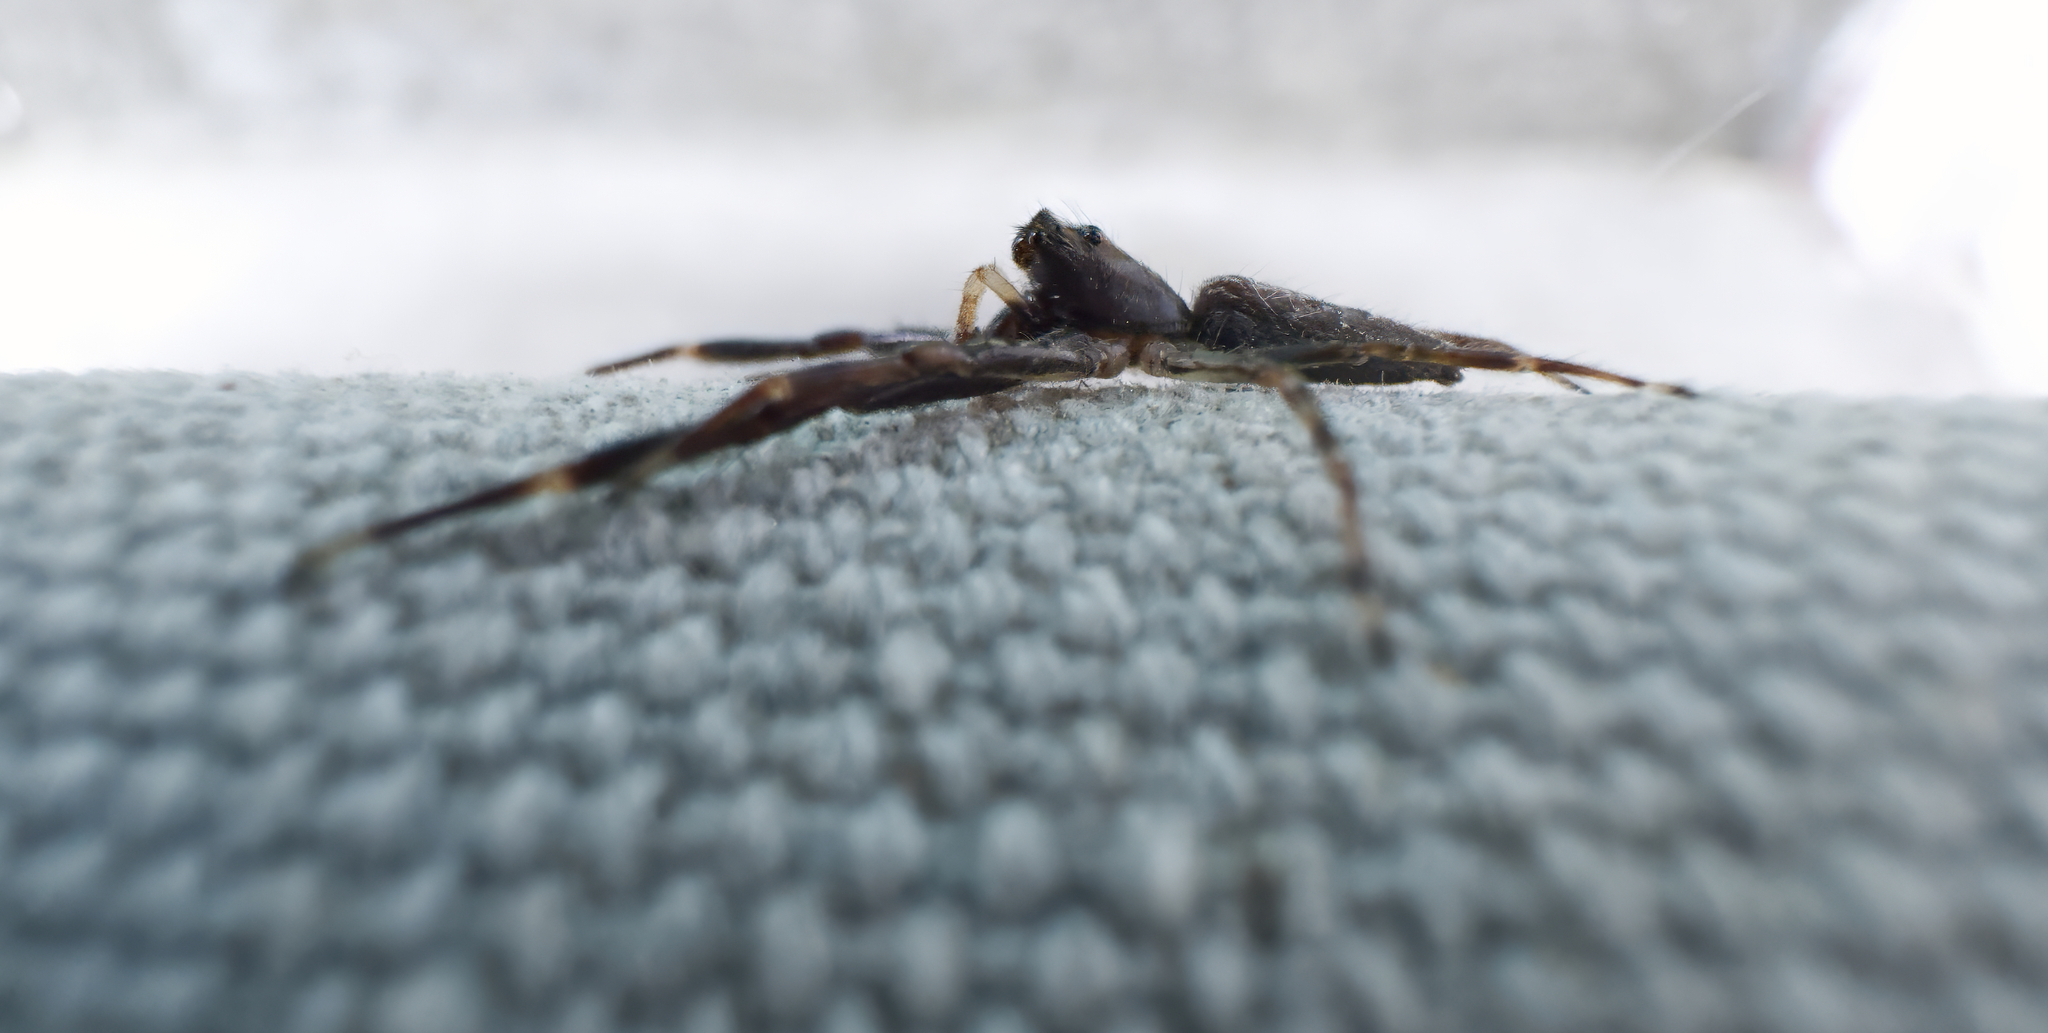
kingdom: Animalia
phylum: Arthropoda
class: Arachnida
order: Araneae
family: Salticidae
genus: Helpis
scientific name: Helpis minitabunda
